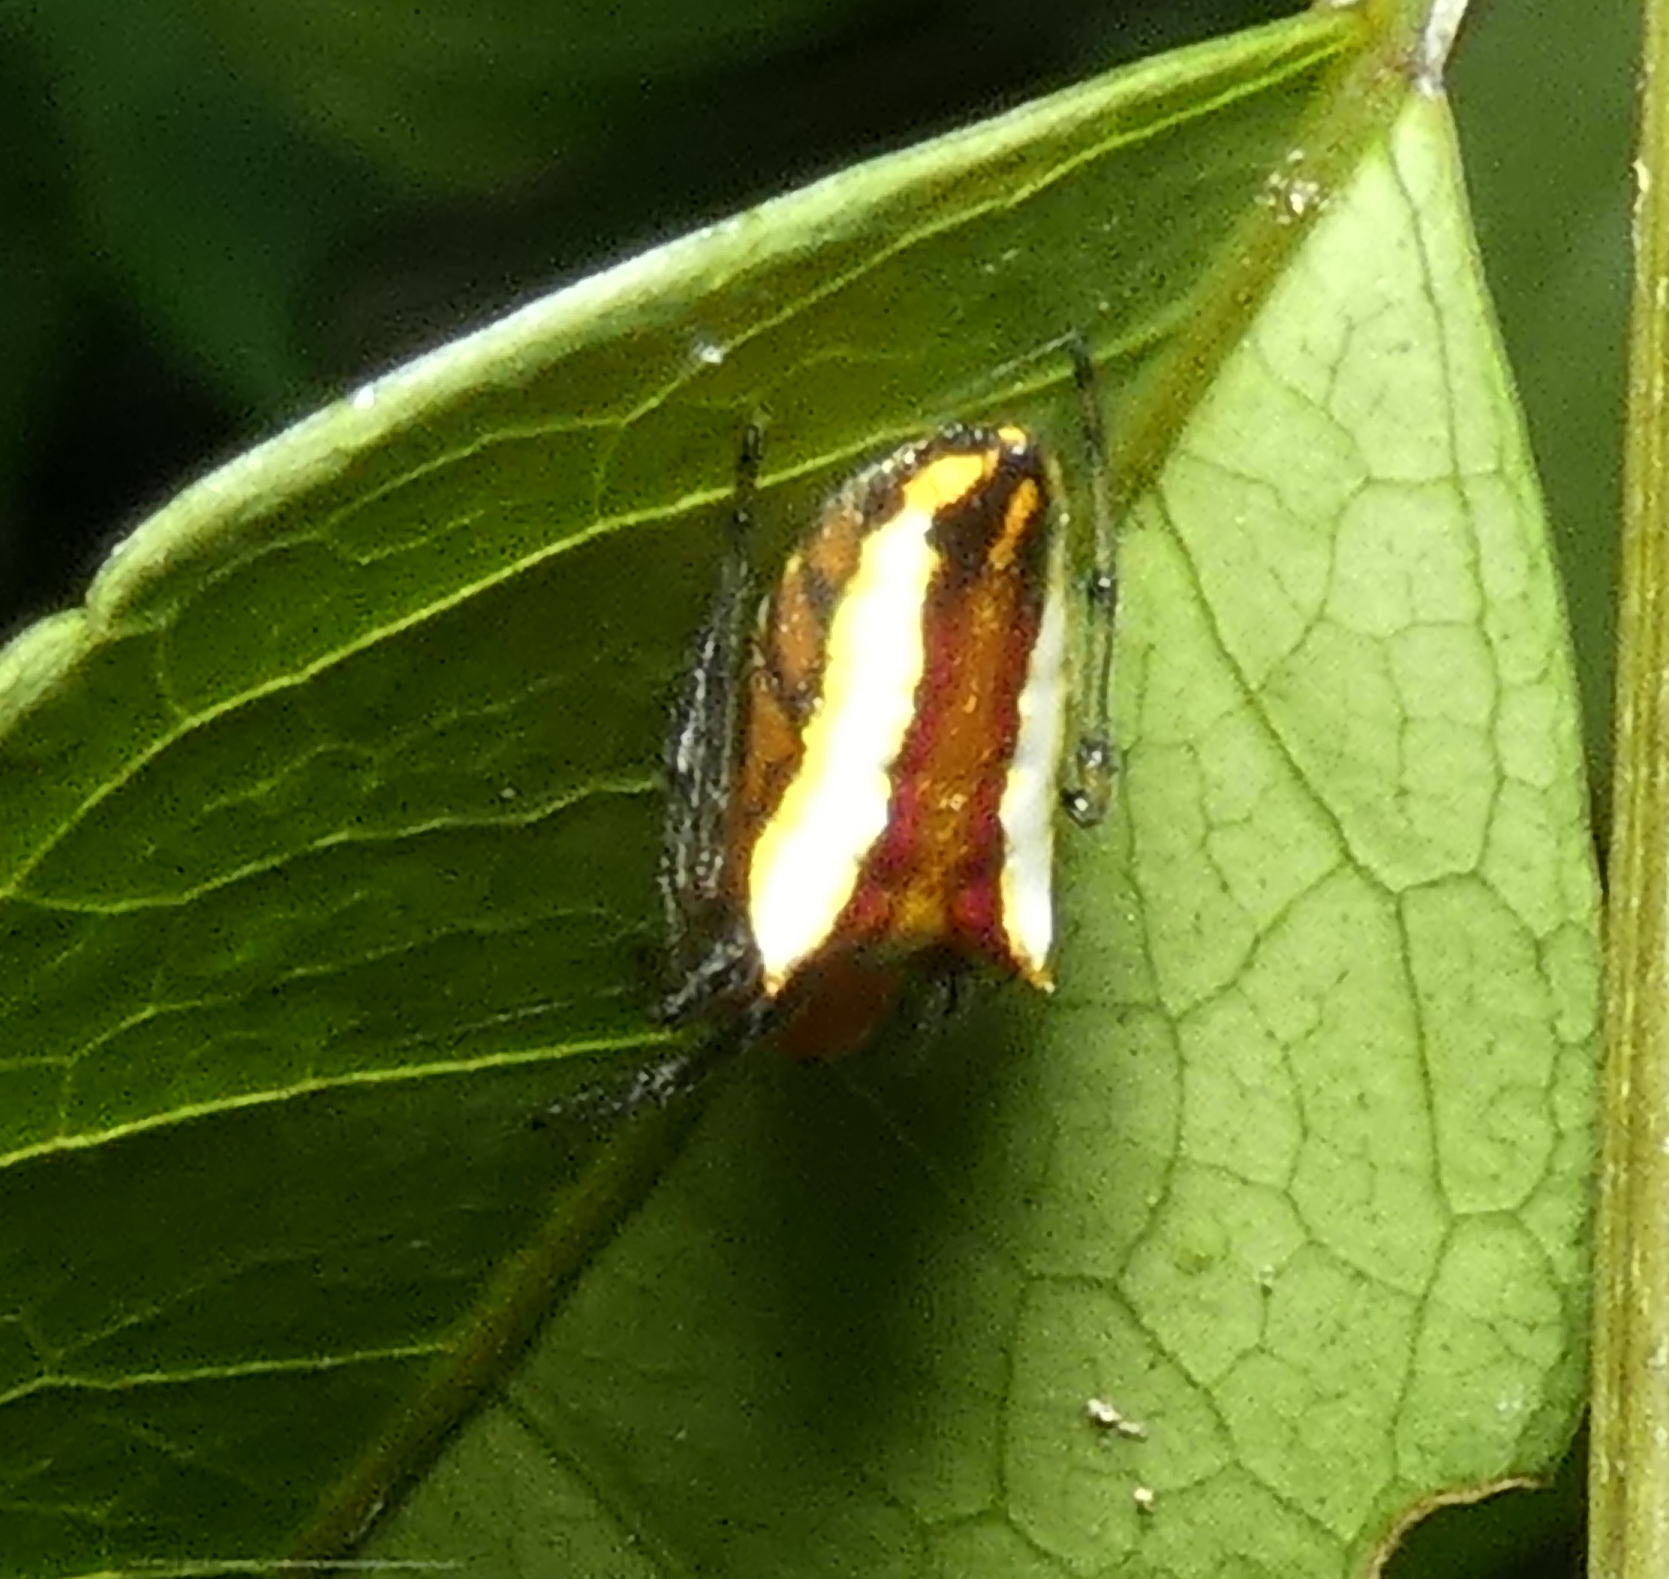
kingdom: Animalia
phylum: Arthropoda
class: Arachnida
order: Araneae
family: Araneidae
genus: Alpaida
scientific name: Alpaida bicornuta
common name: Orb weavers
